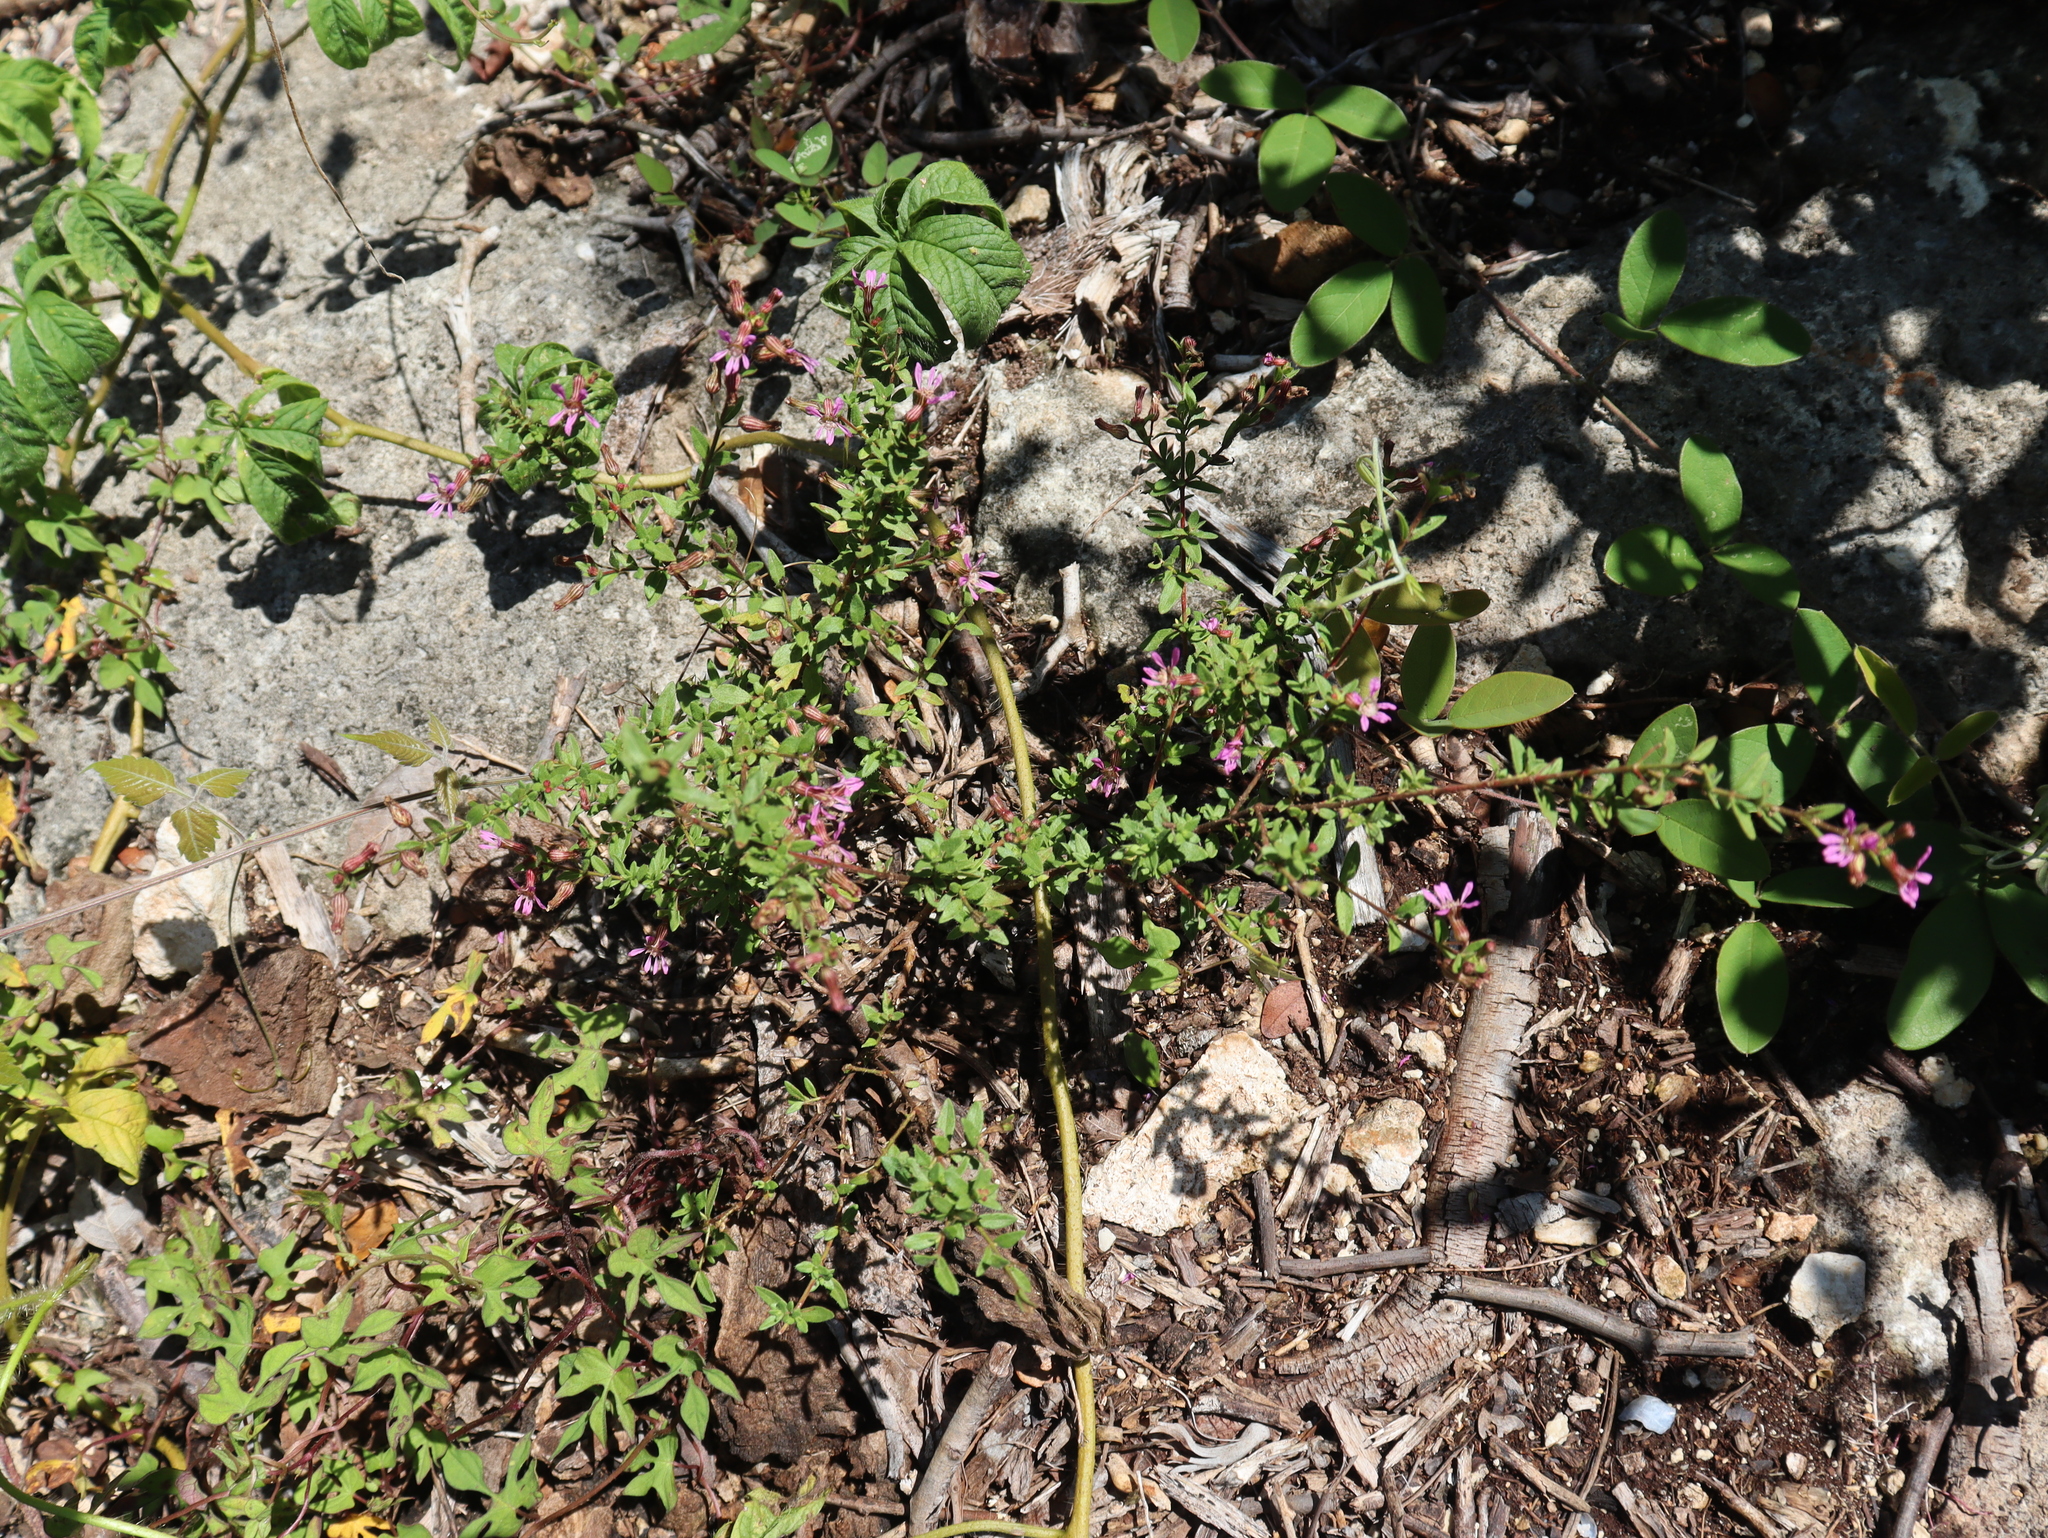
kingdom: Plantae
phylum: Tracheophyta
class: Magnoliopsida
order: Myrtales
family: Lythraceae
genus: Cuphea
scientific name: Cuphea gaumeri
